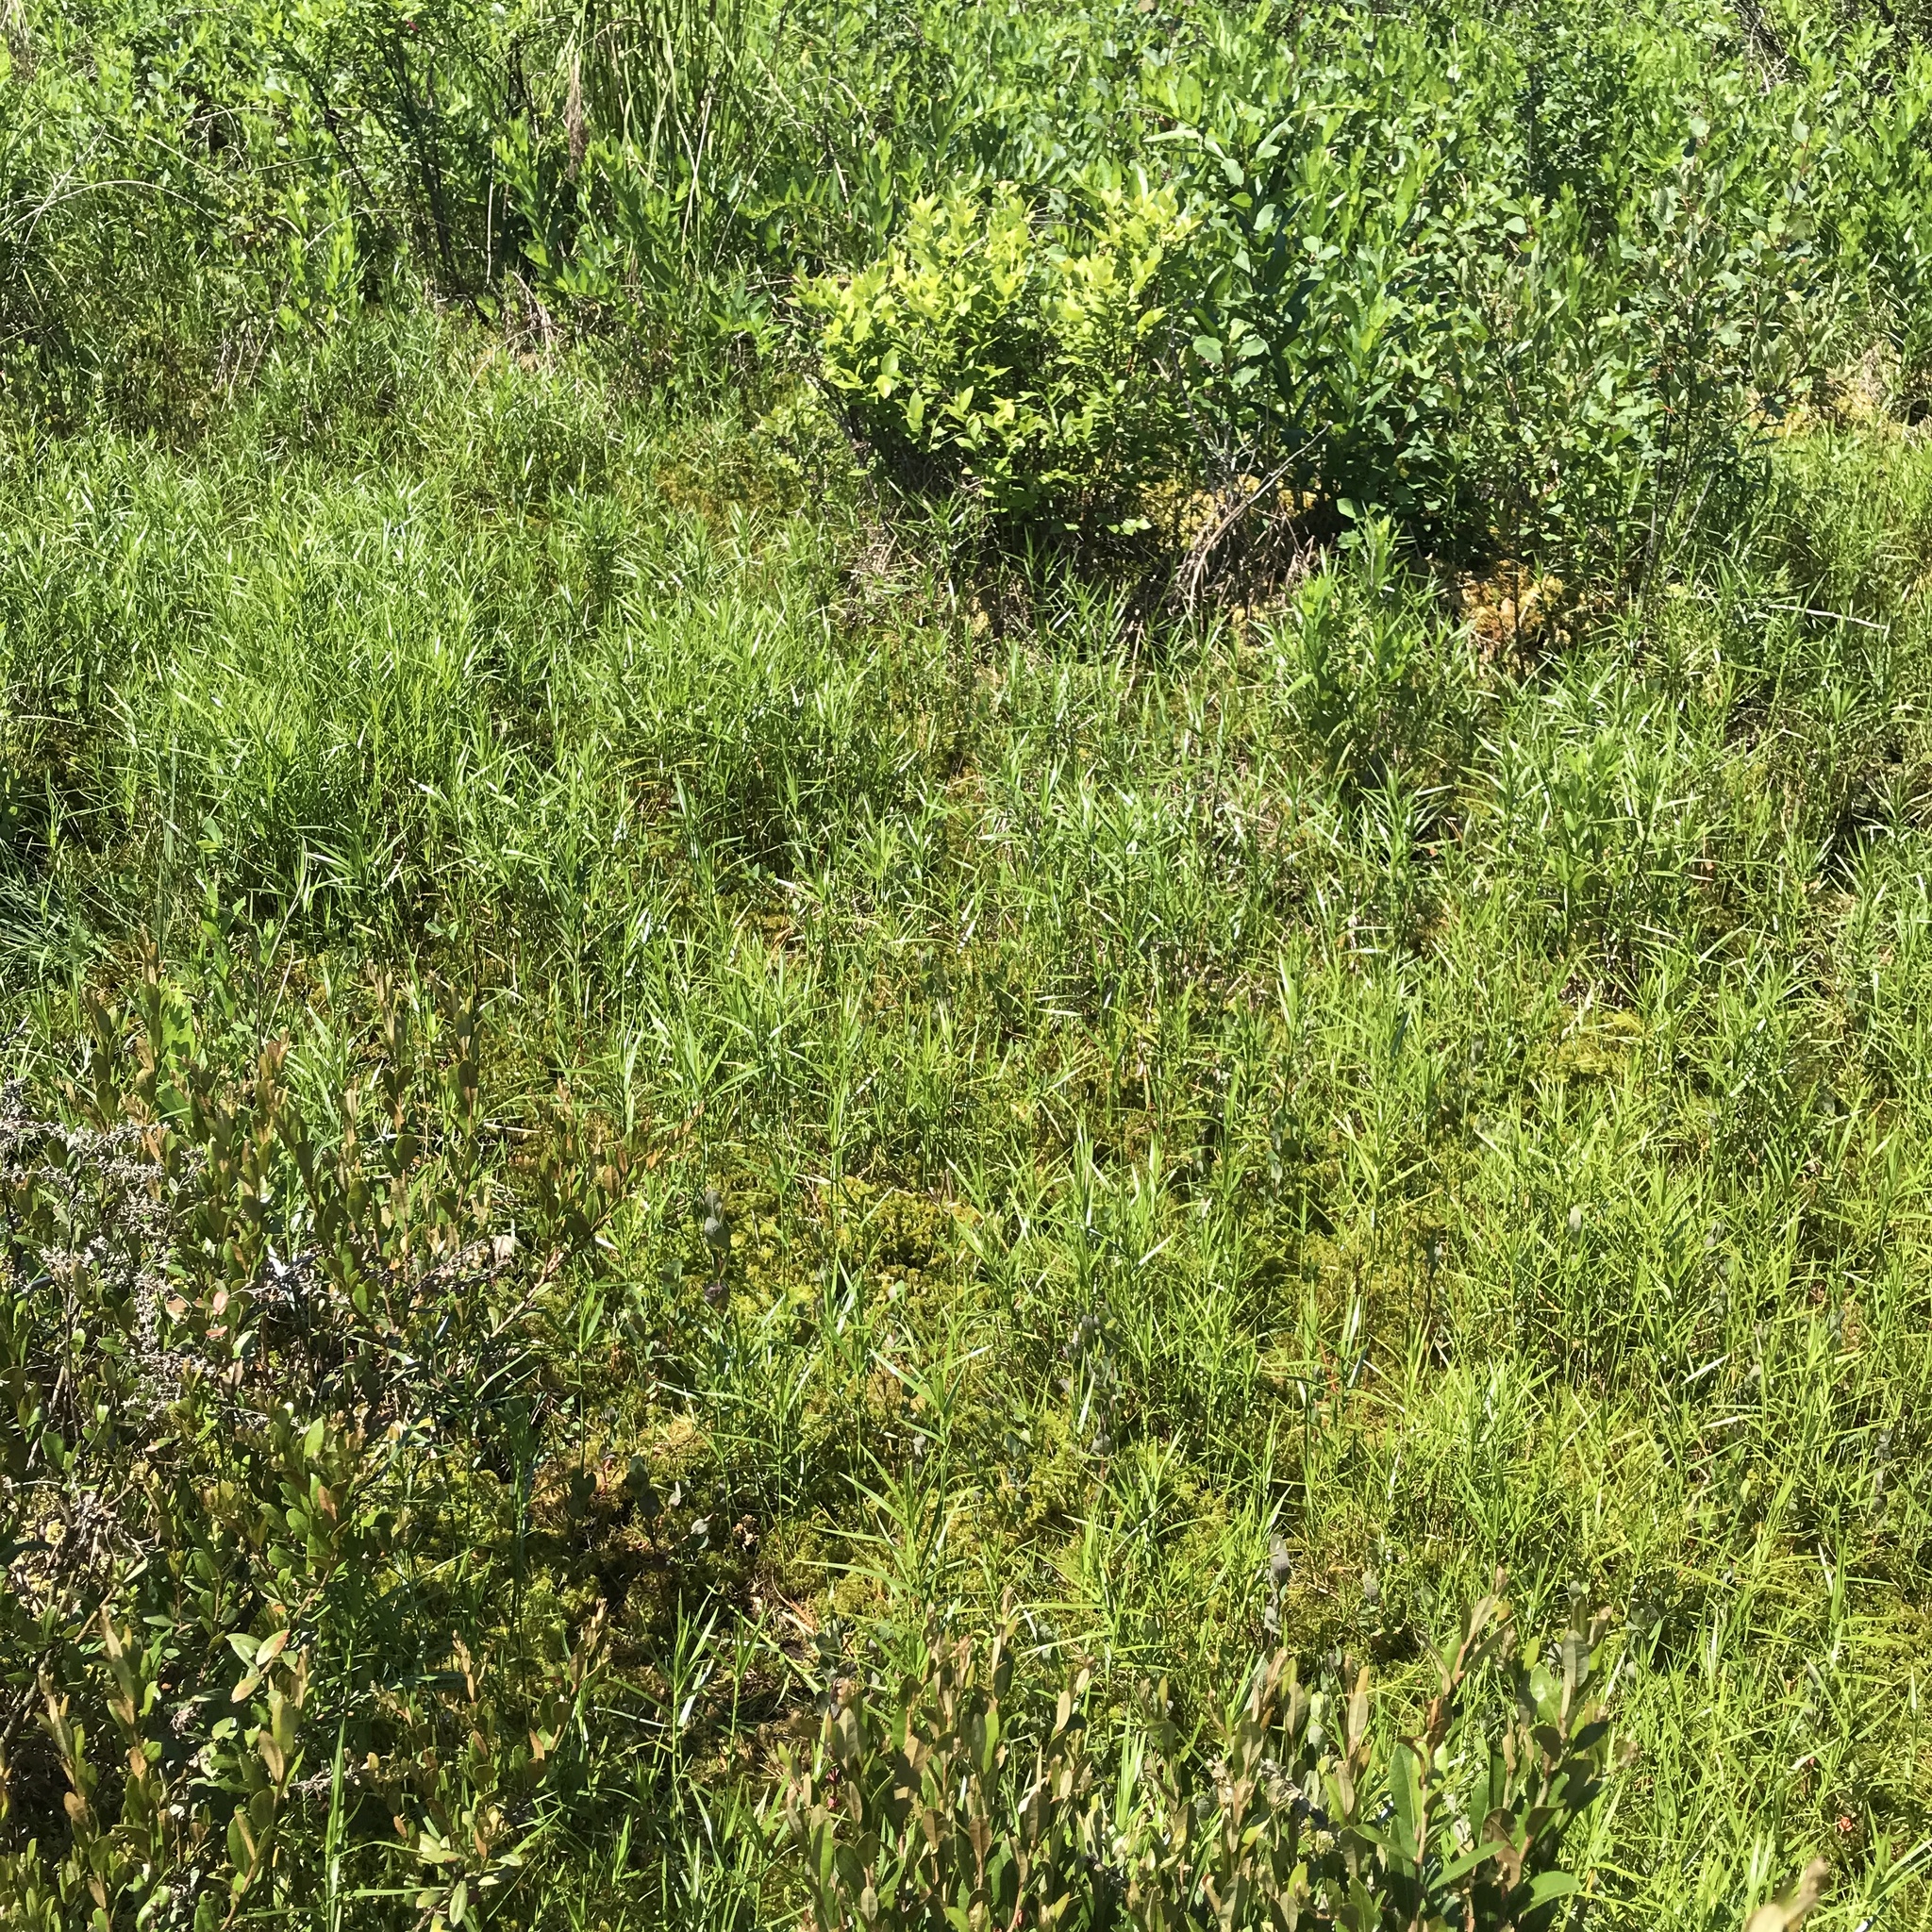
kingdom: Plantae
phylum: Tracheophyta
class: Liliopsida
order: Poales
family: Cyperaceae
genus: Dulichium
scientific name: Dulichium arundinaceum
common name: Three-way sedge
